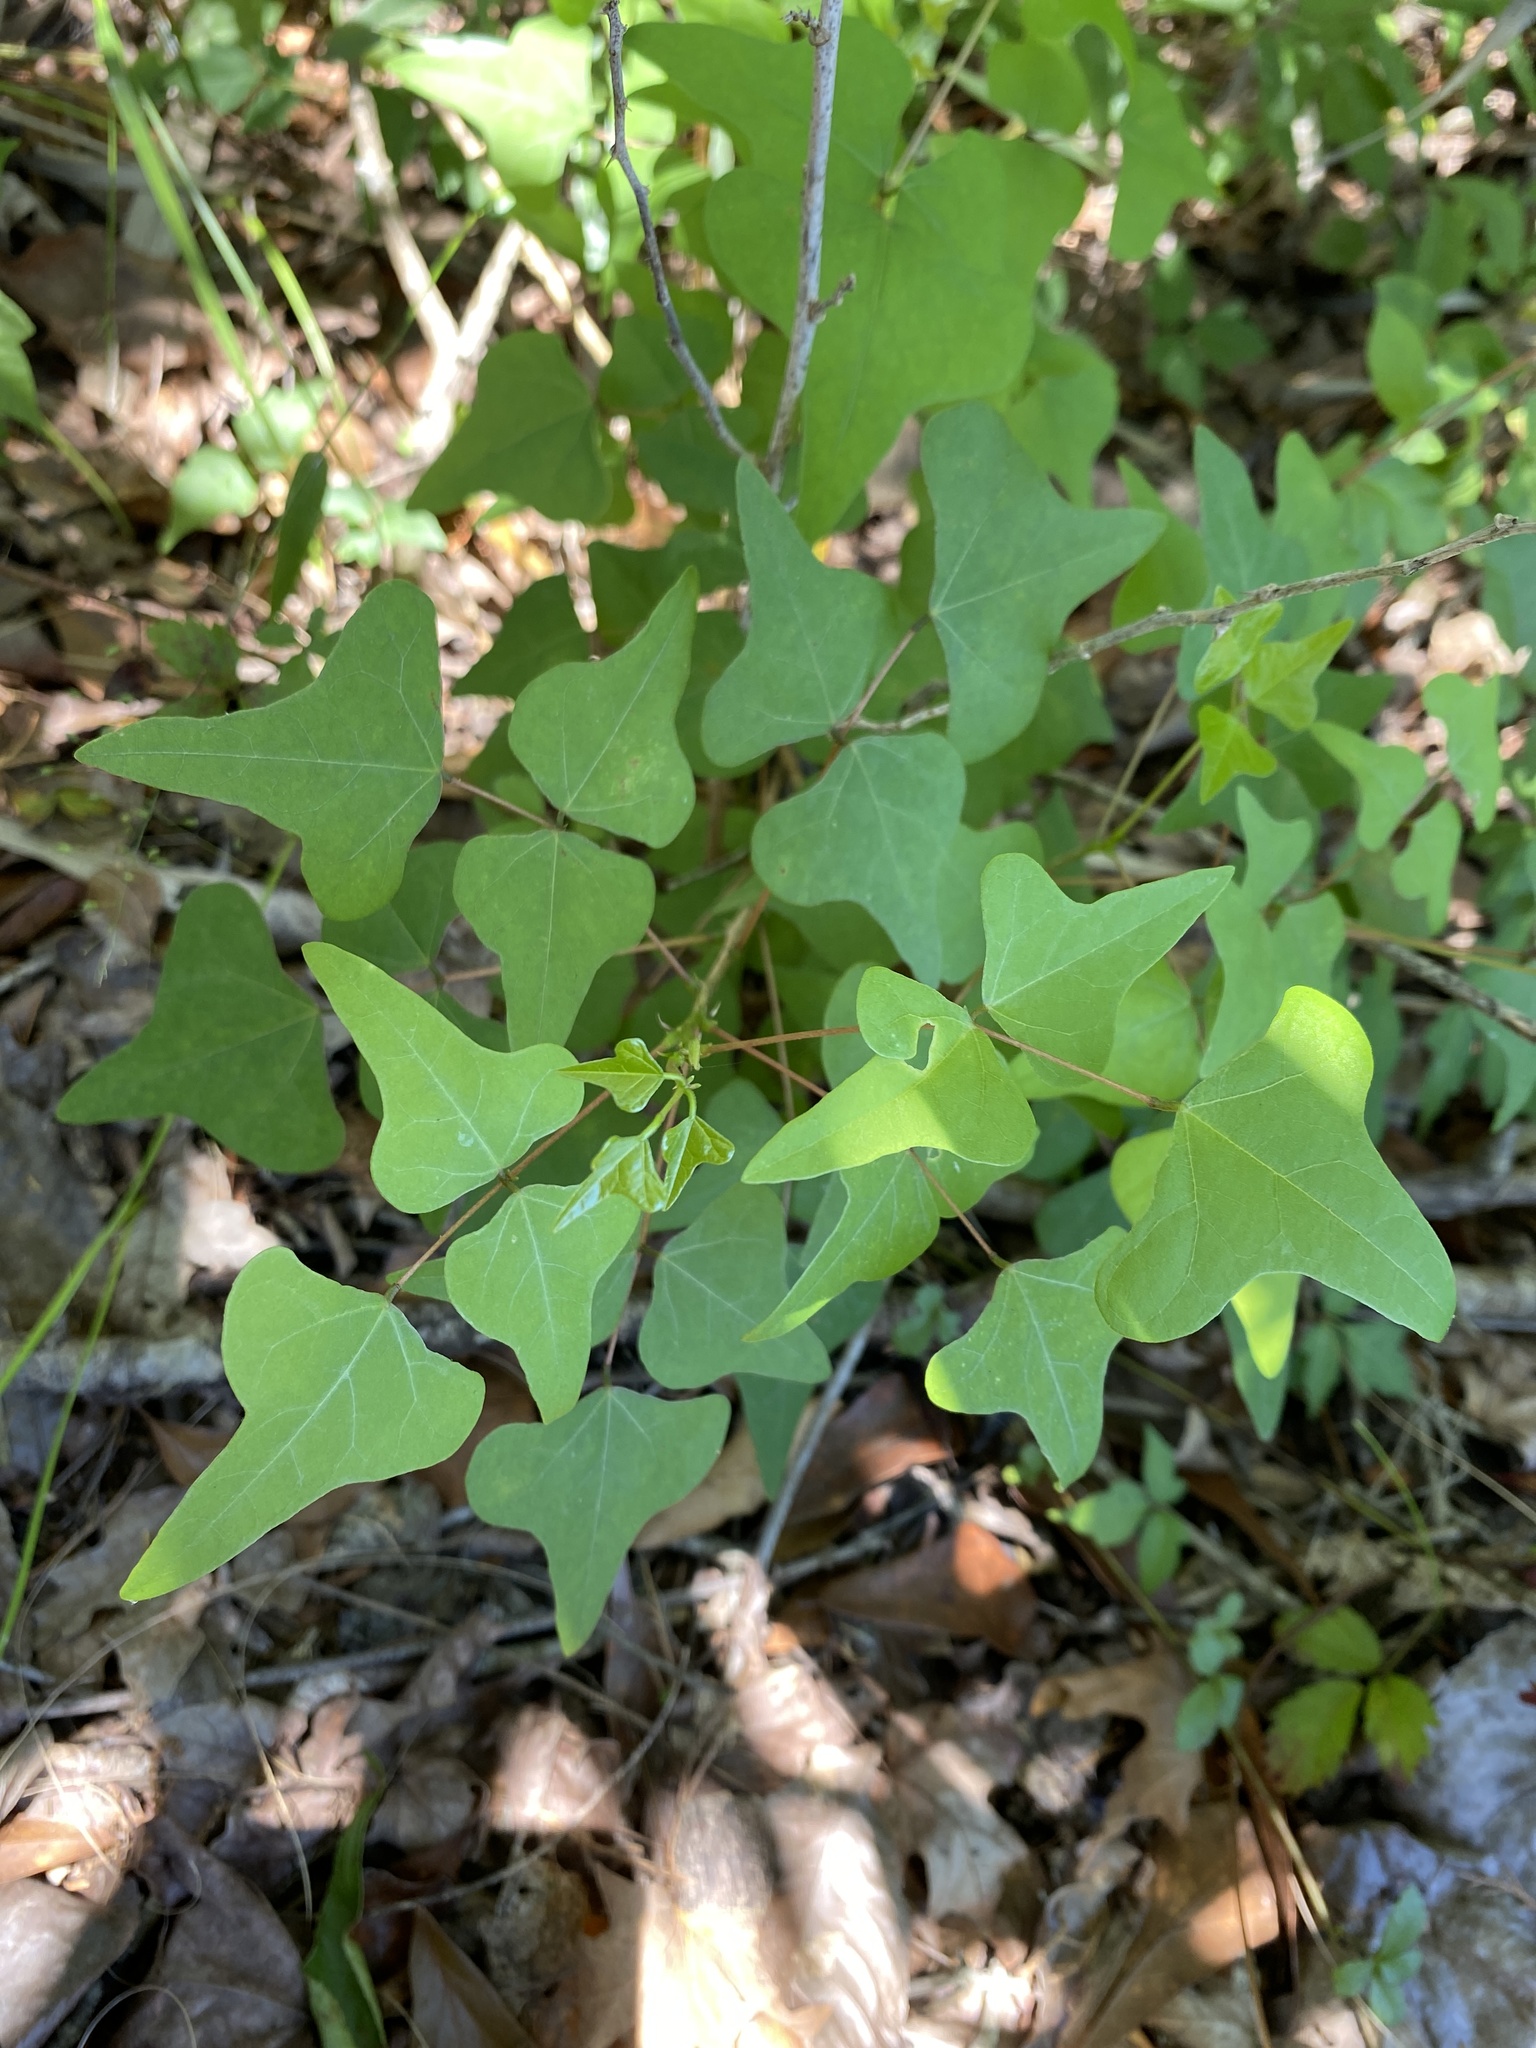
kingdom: Plantae
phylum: Tracheophyta
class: Magnoliopsida
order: Fabales
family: Fabaceae
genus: Erythrina
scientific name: Erythrina herbacea
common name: Coral-bean
